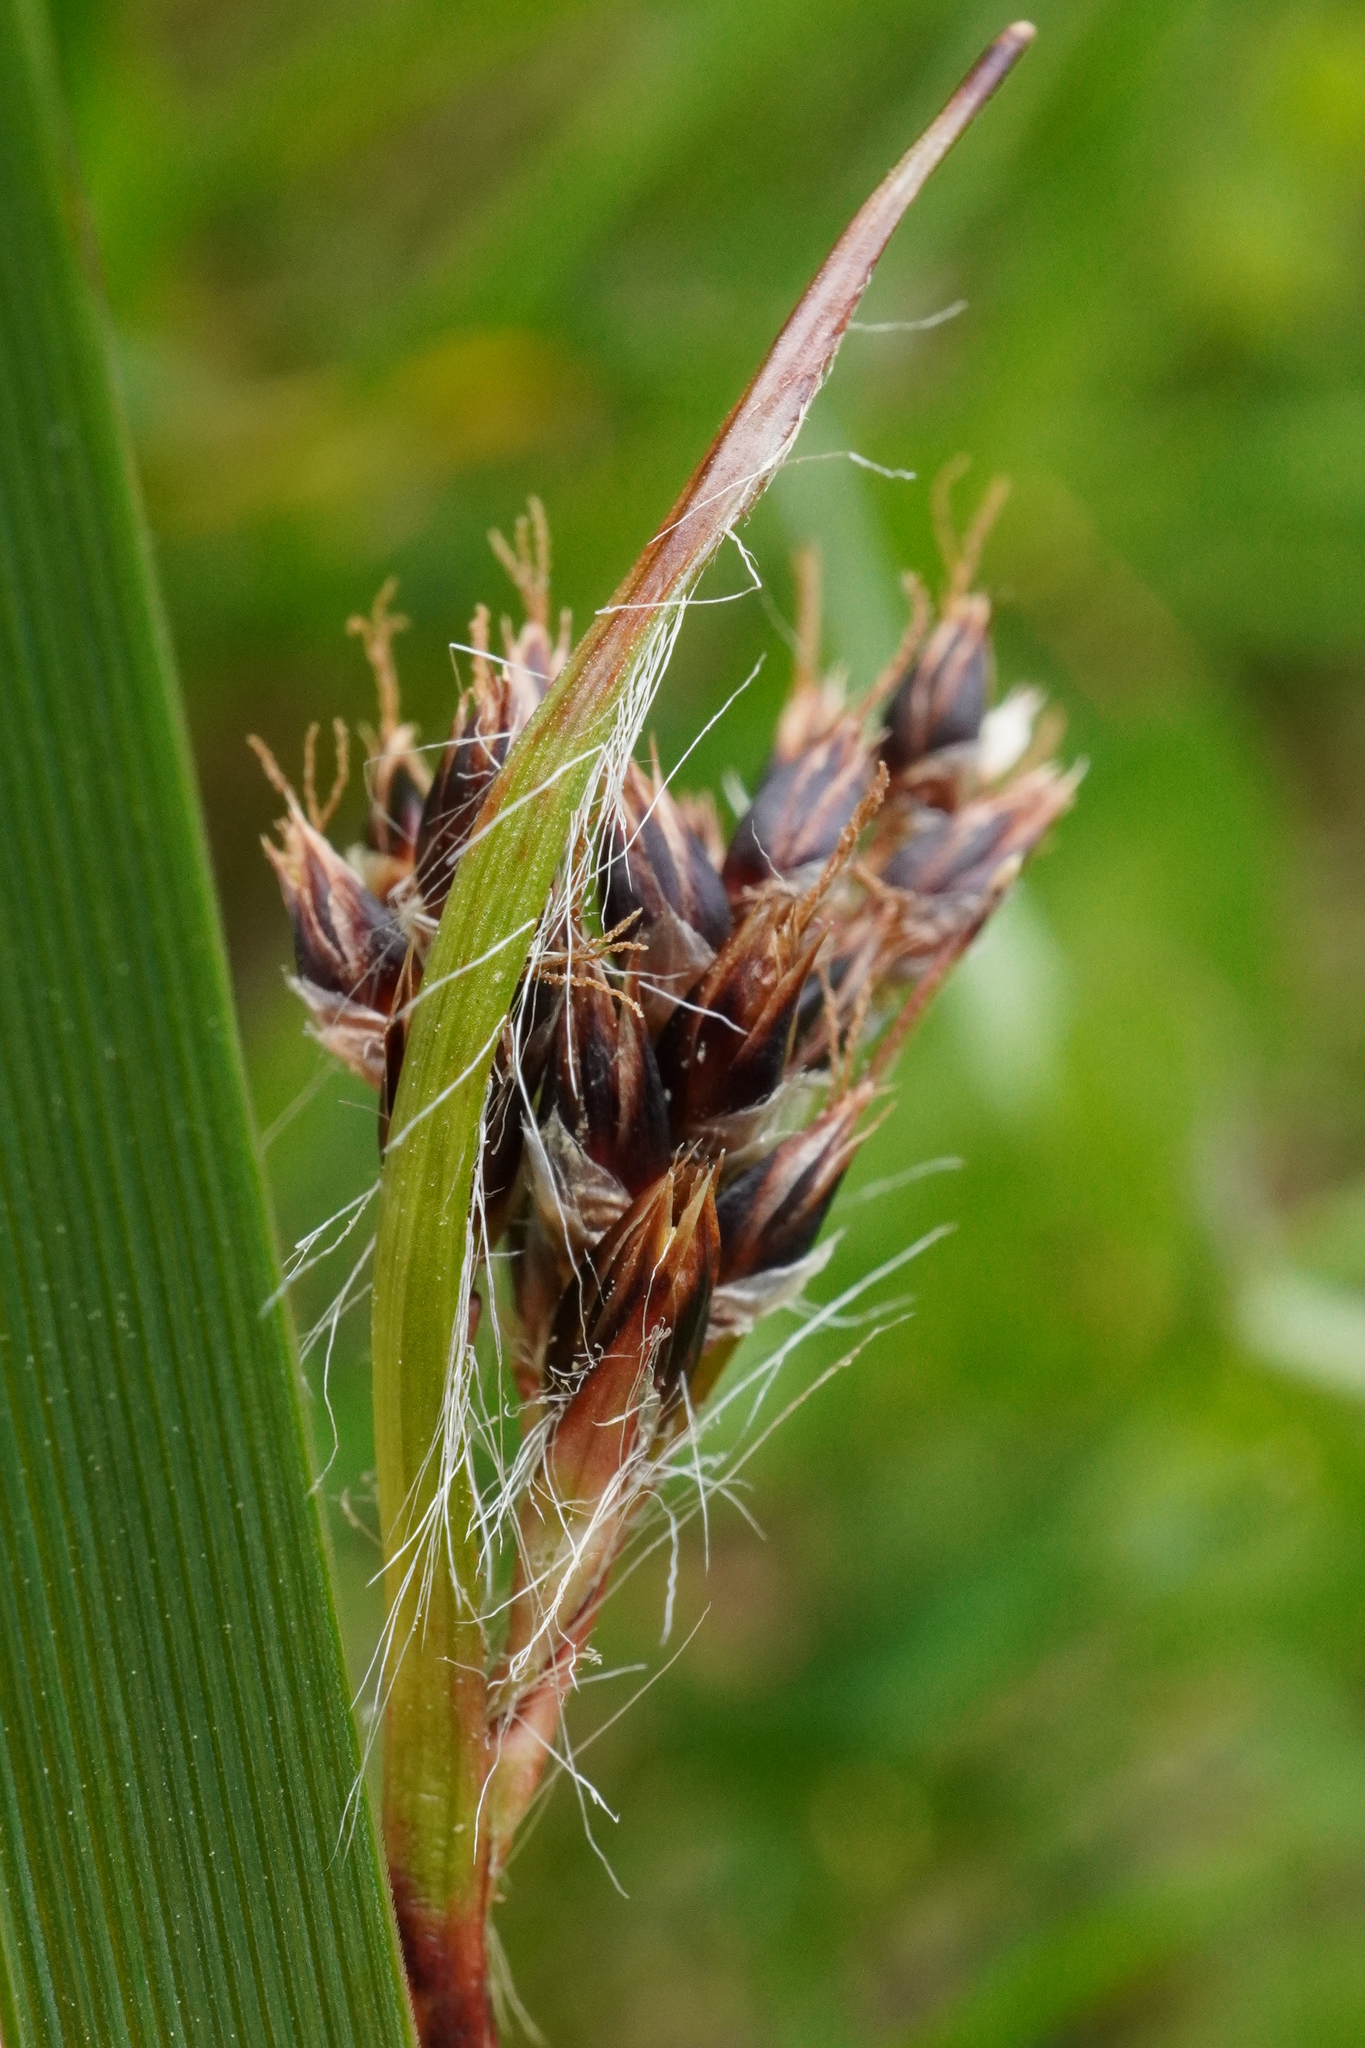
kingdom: Plantae
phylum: Tracheophyta
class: Liliopsida
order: Poales
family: Juncaceae
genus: Luzula
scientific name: Luzula campestris
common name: Field wood-rush
